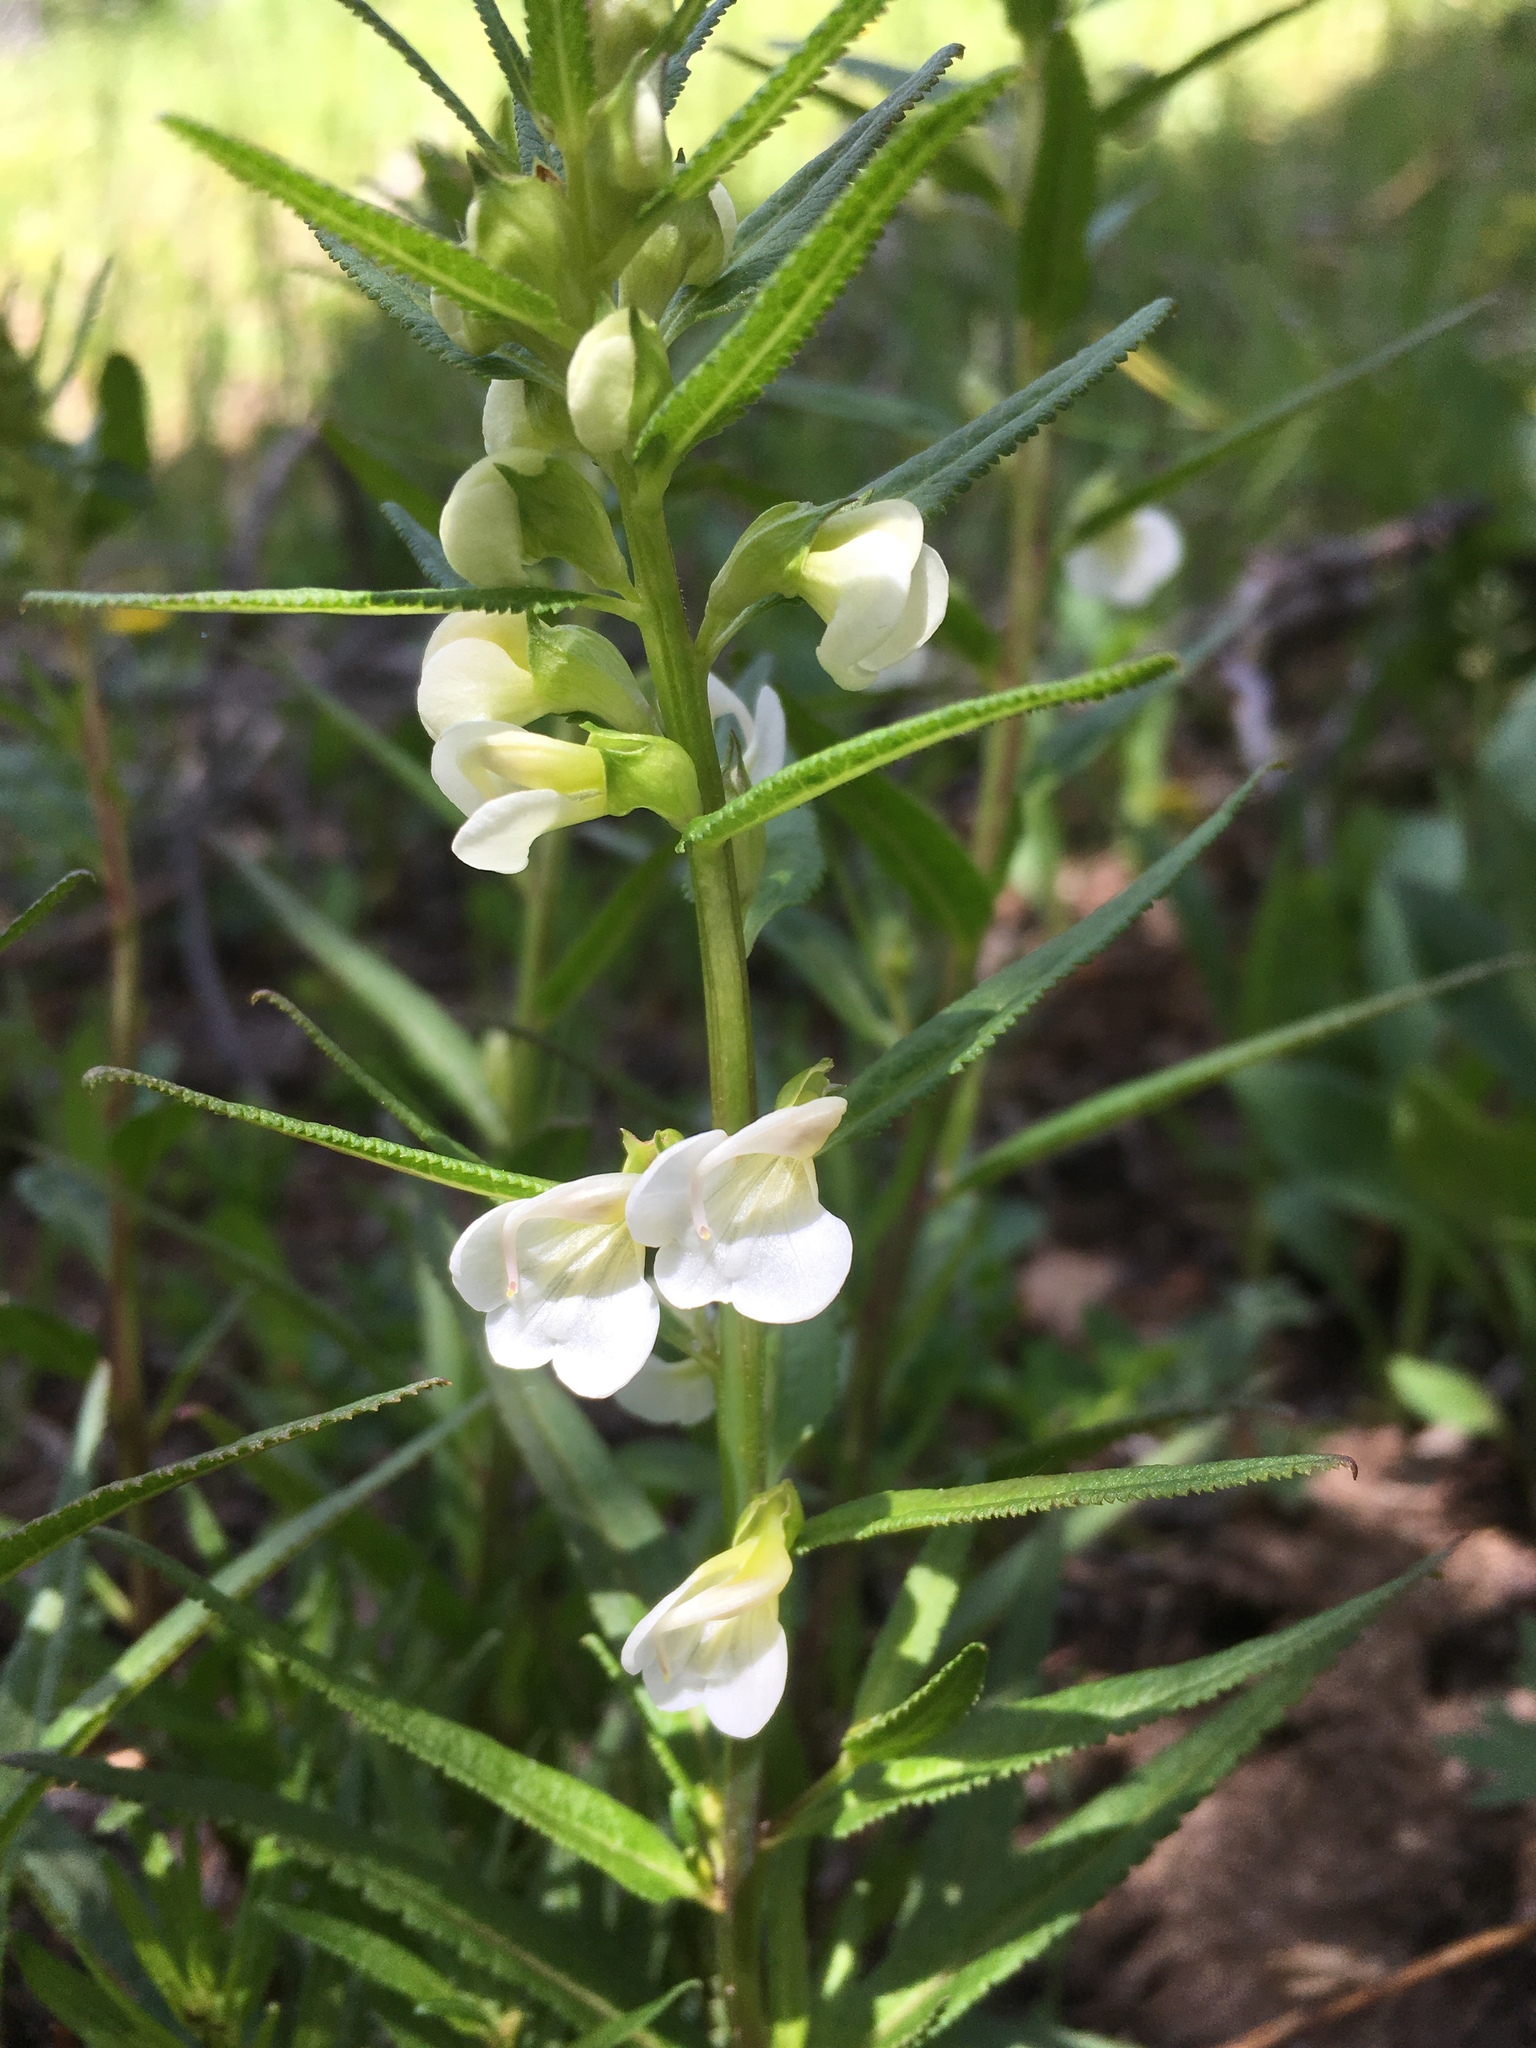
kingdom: Plantae
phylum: Tracheophyta
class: Magnoliopsida
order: Lamiales
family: Orobanchaceae
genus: Pedicularis
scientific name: Pedicularis racemosa
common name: Leafy lousewort
